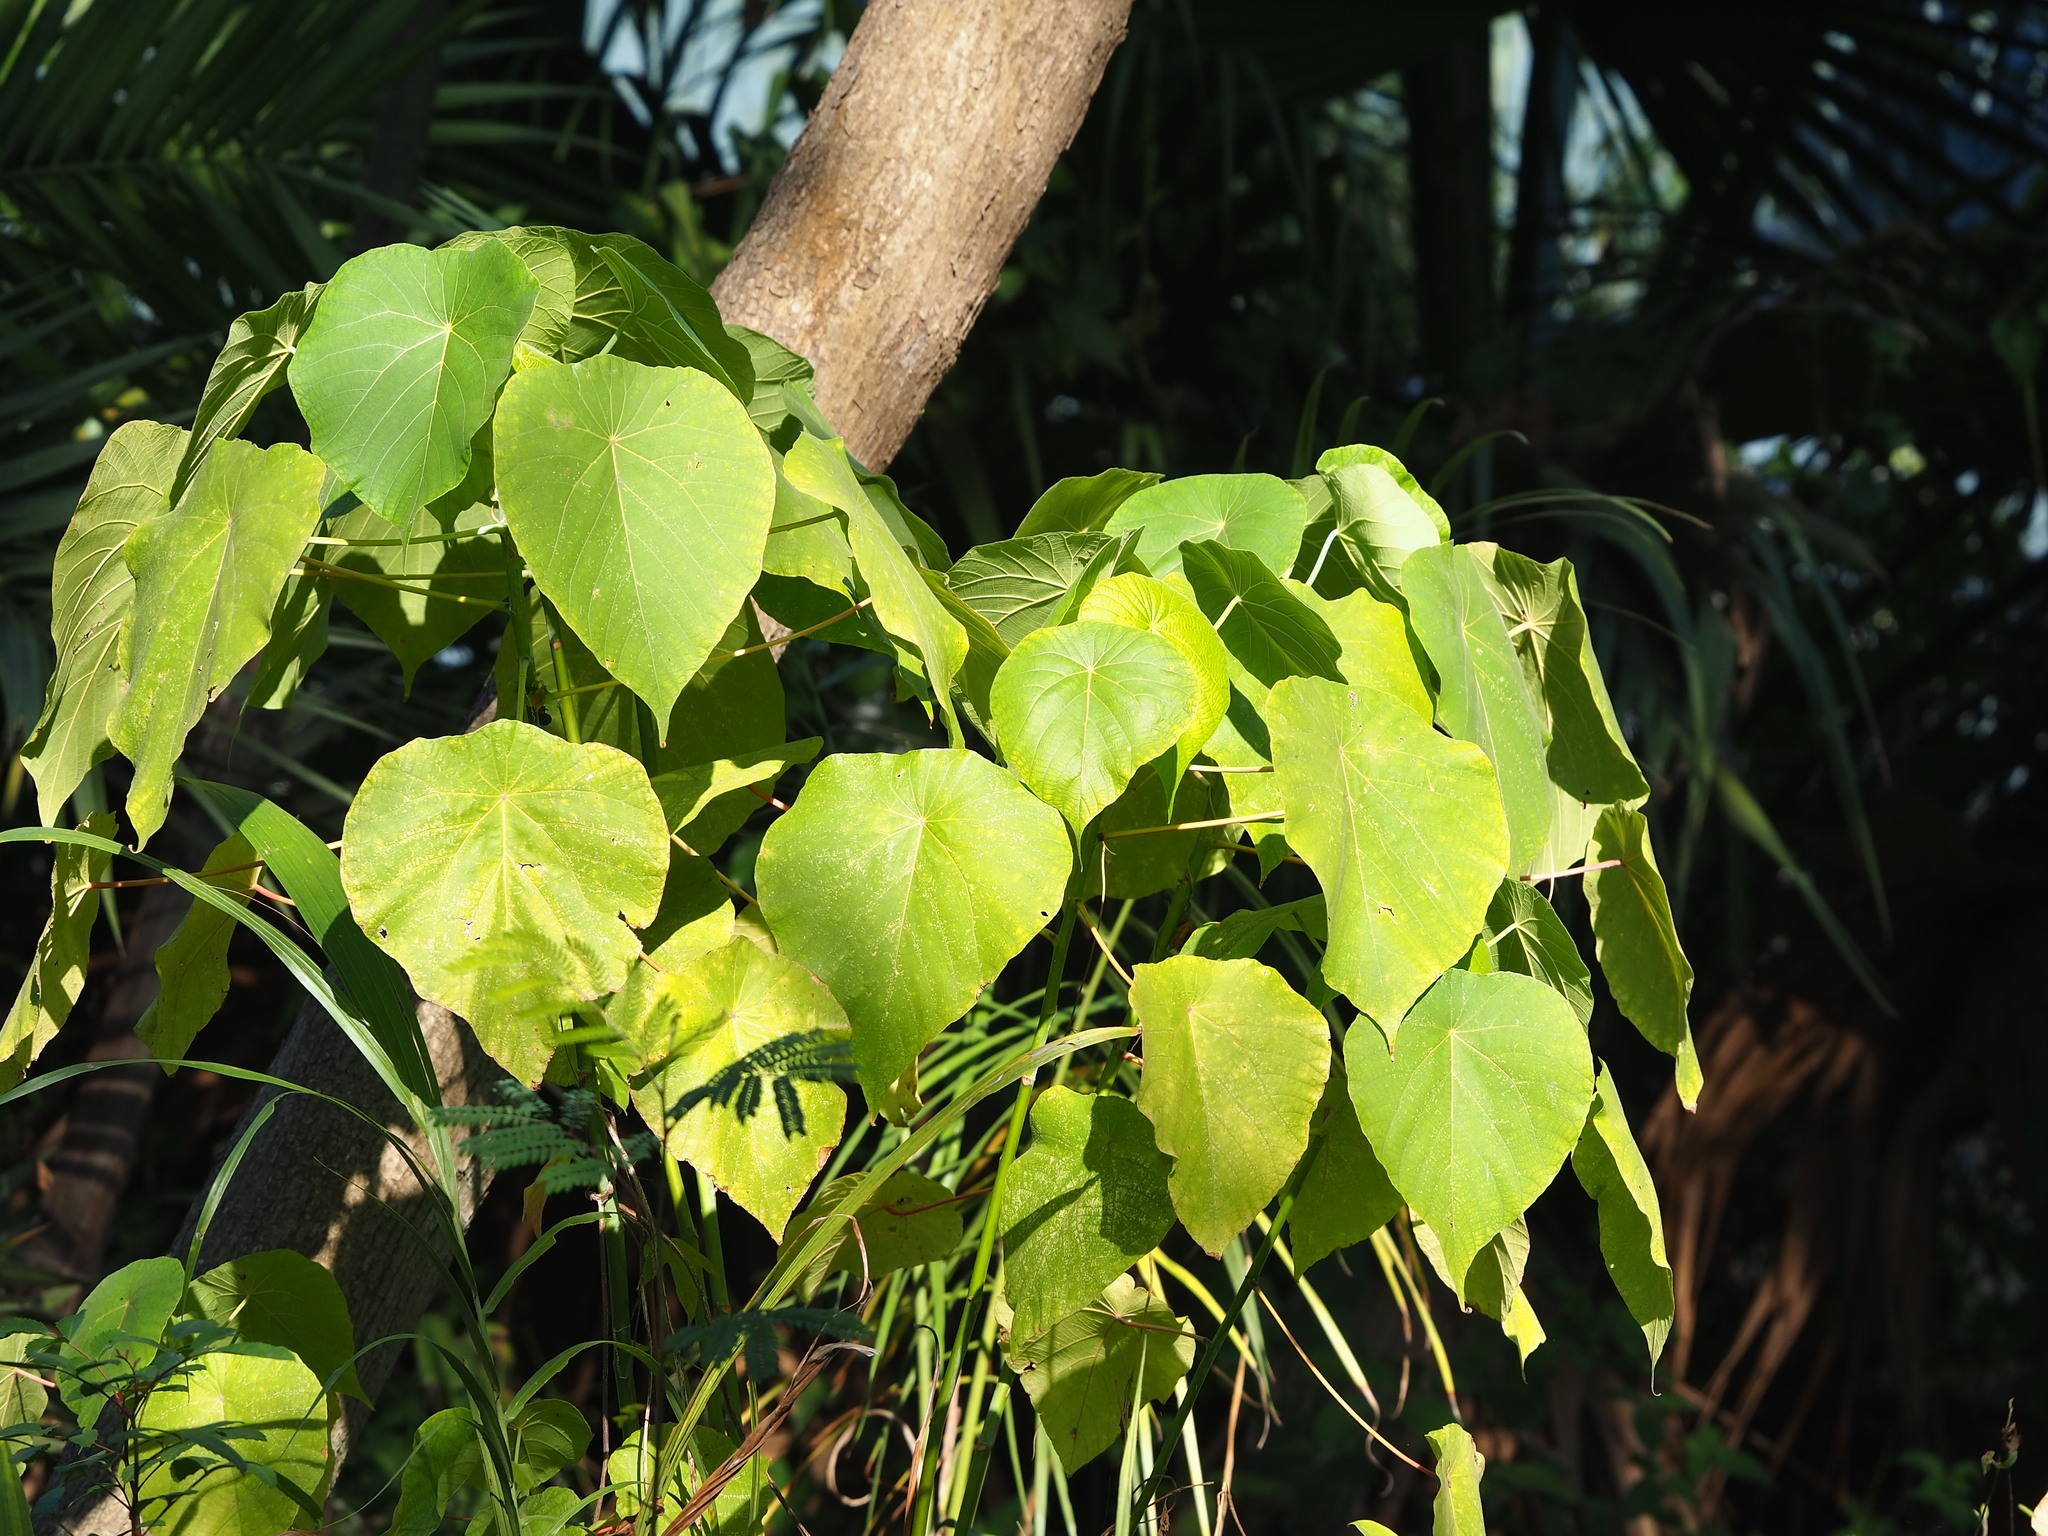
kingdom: Plantae
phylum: Tracheophyta
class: Magnoliopsida
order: Malpighiales
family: Euphorbiaceae
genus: Macaranga
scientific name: Macaranga tanarius
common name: Parasol leaf tree
